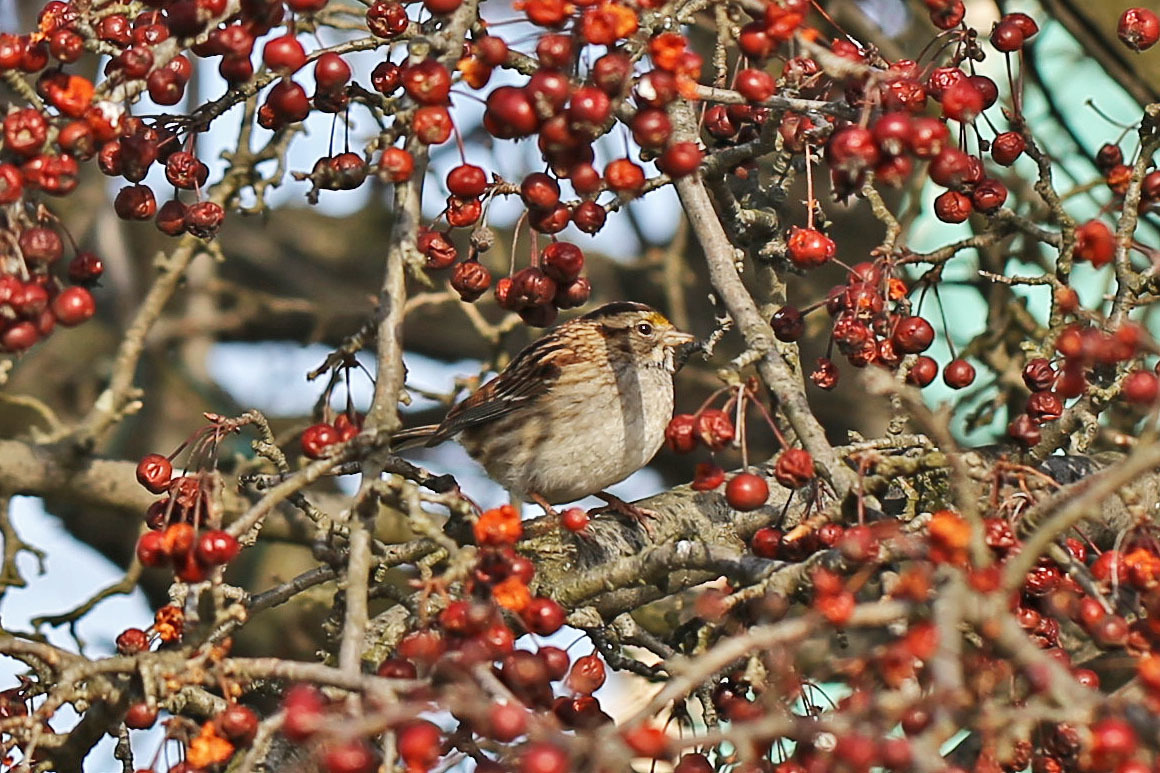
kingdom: Animalia
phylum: Chordata
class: Aves
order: Passeriformes
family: Passerellidae
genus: Zonotrichia
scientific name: Zonotrichia albicollis
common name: White-throated sparrow
